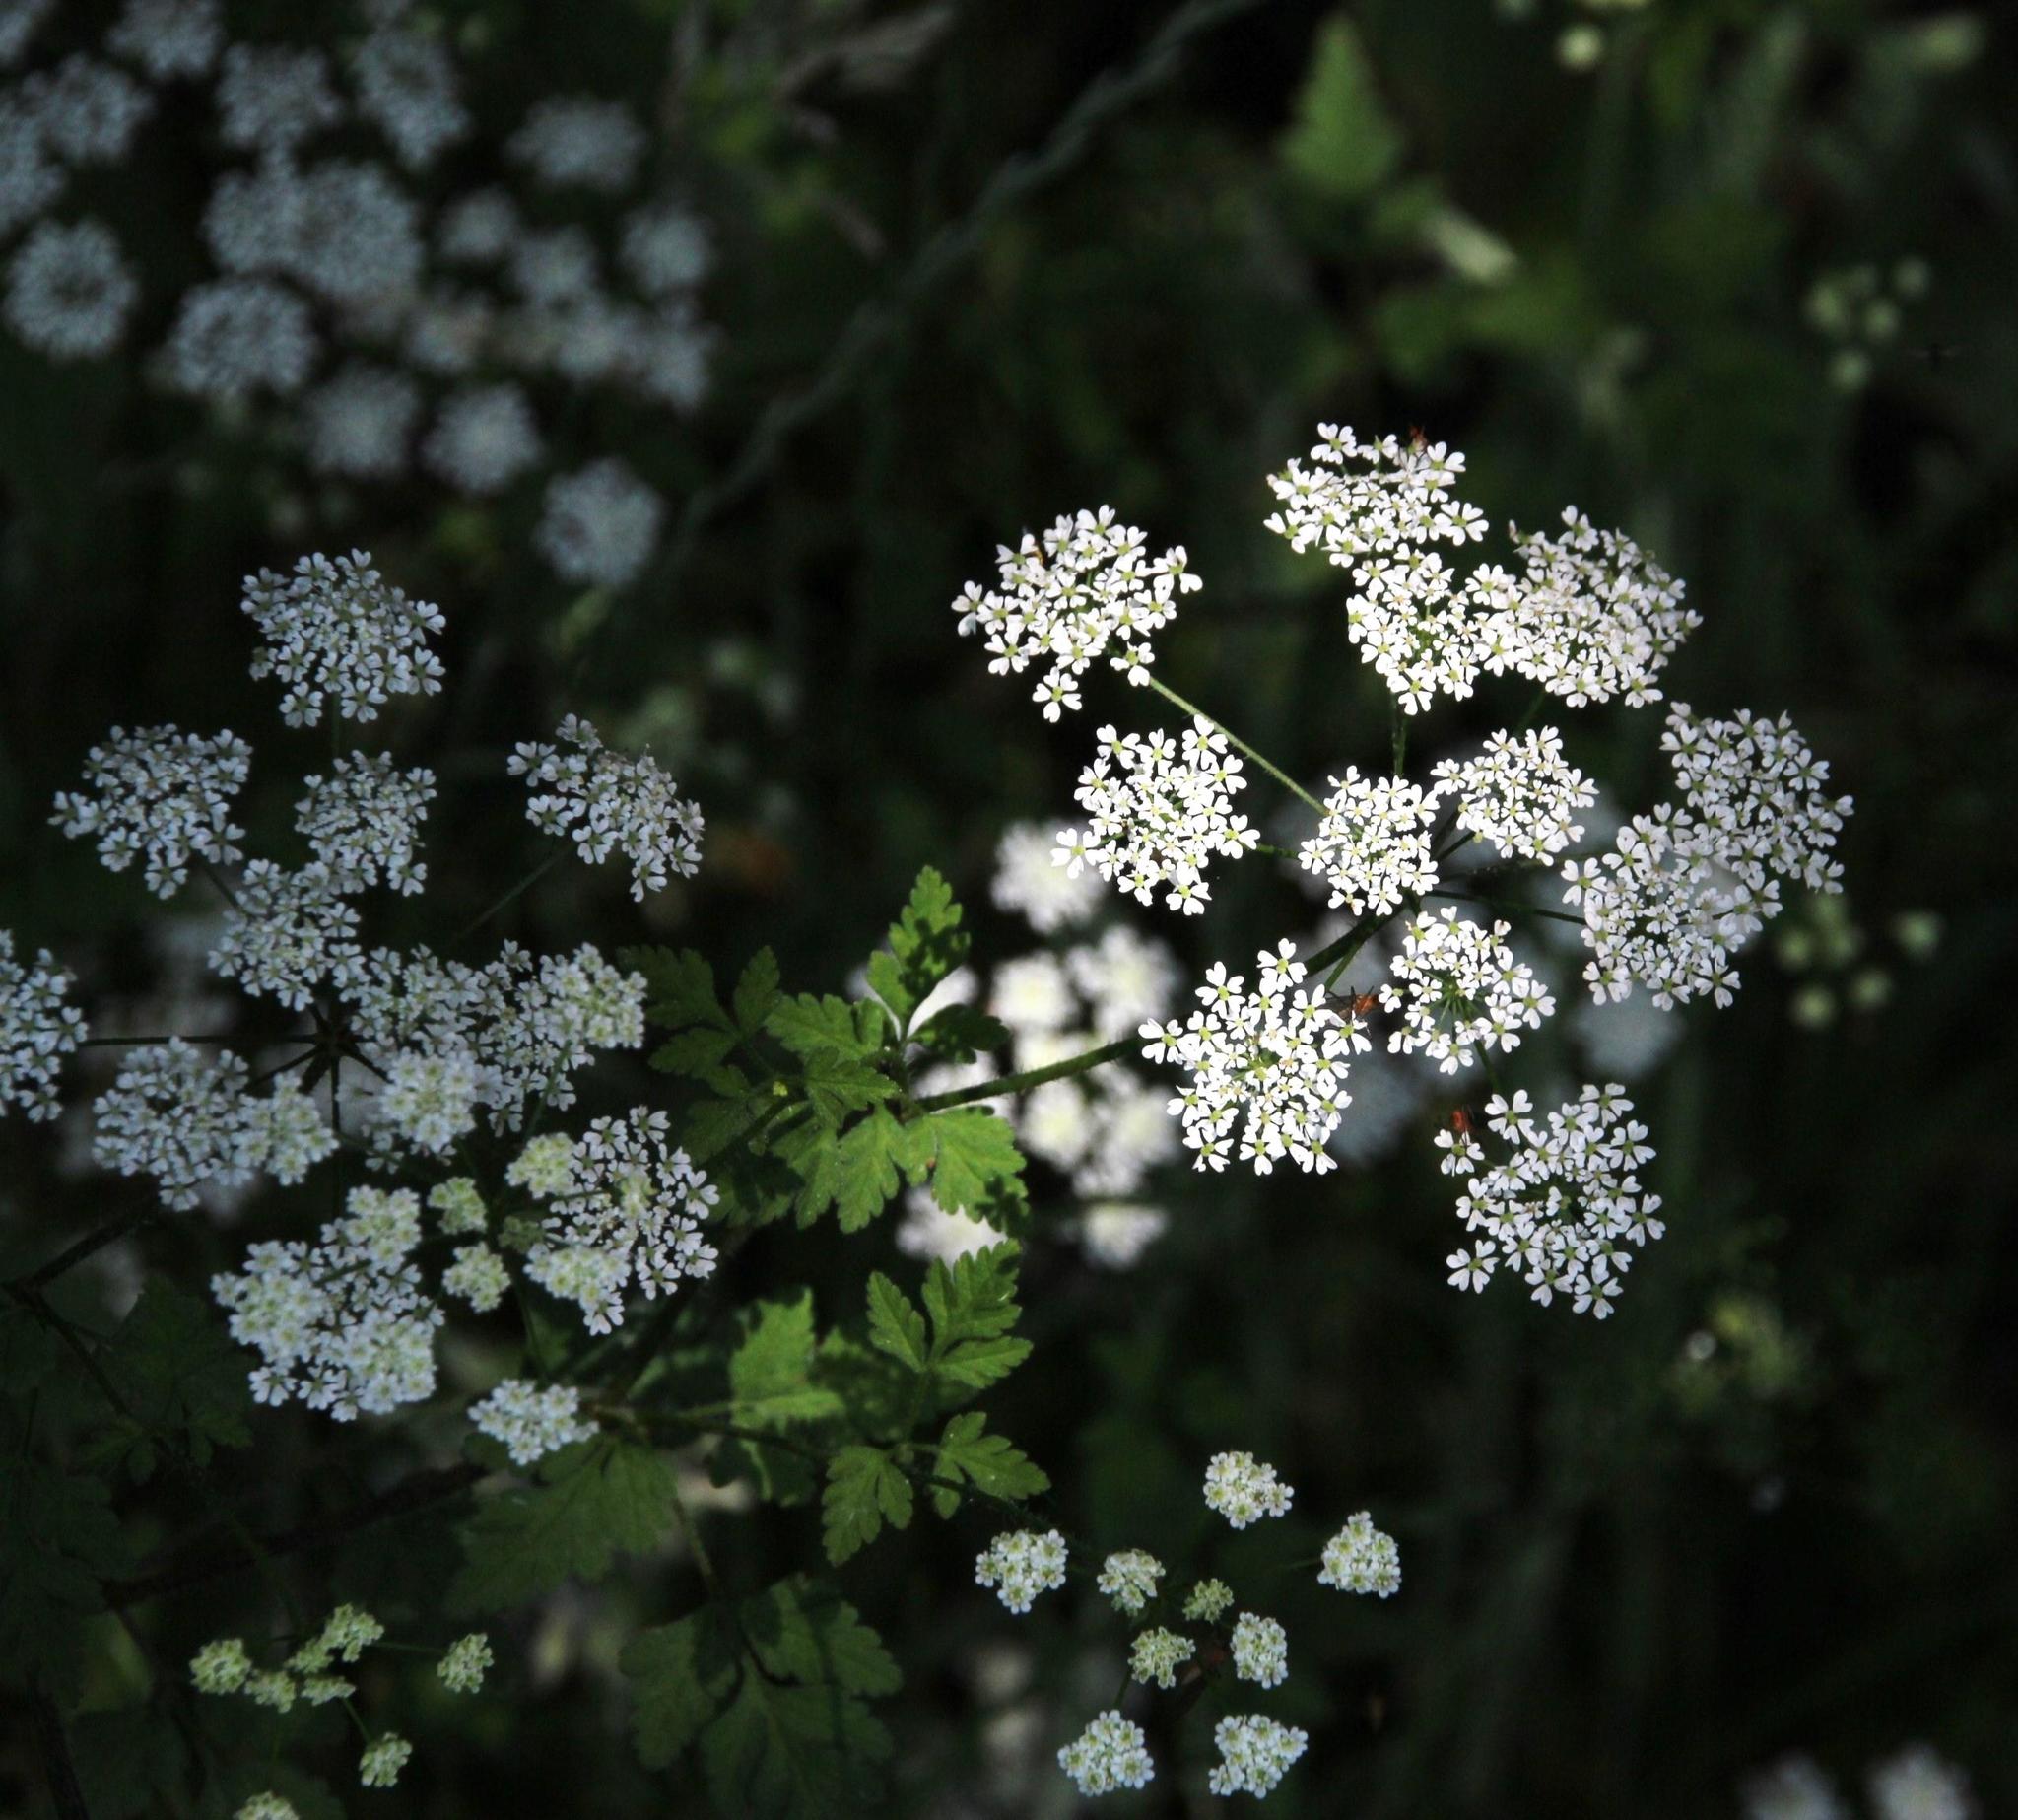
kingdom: Plantae
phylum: Tracheophyta
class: Magnoliopsida
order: Apiales
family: Apiaceae
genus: Chaerophyllum
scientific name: Chaerophyllum temulum
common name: Rough chervil
